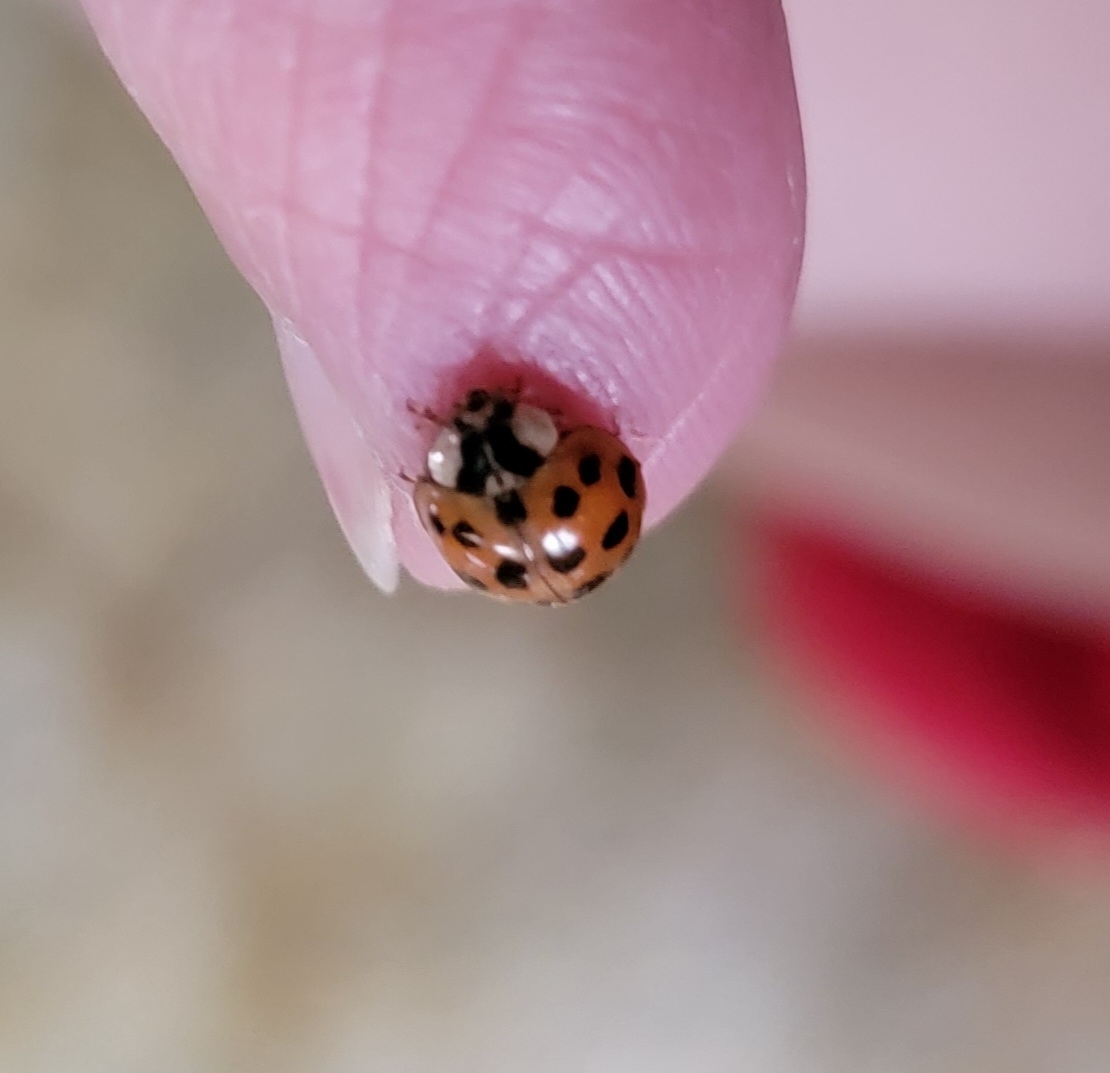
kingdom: Animalia
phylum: Arthropoda
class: Insecta
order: Coleoptera
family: Coccinellidae
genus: Harmonia
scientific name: Harmonia axyridis
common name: Harlequin ladybird
